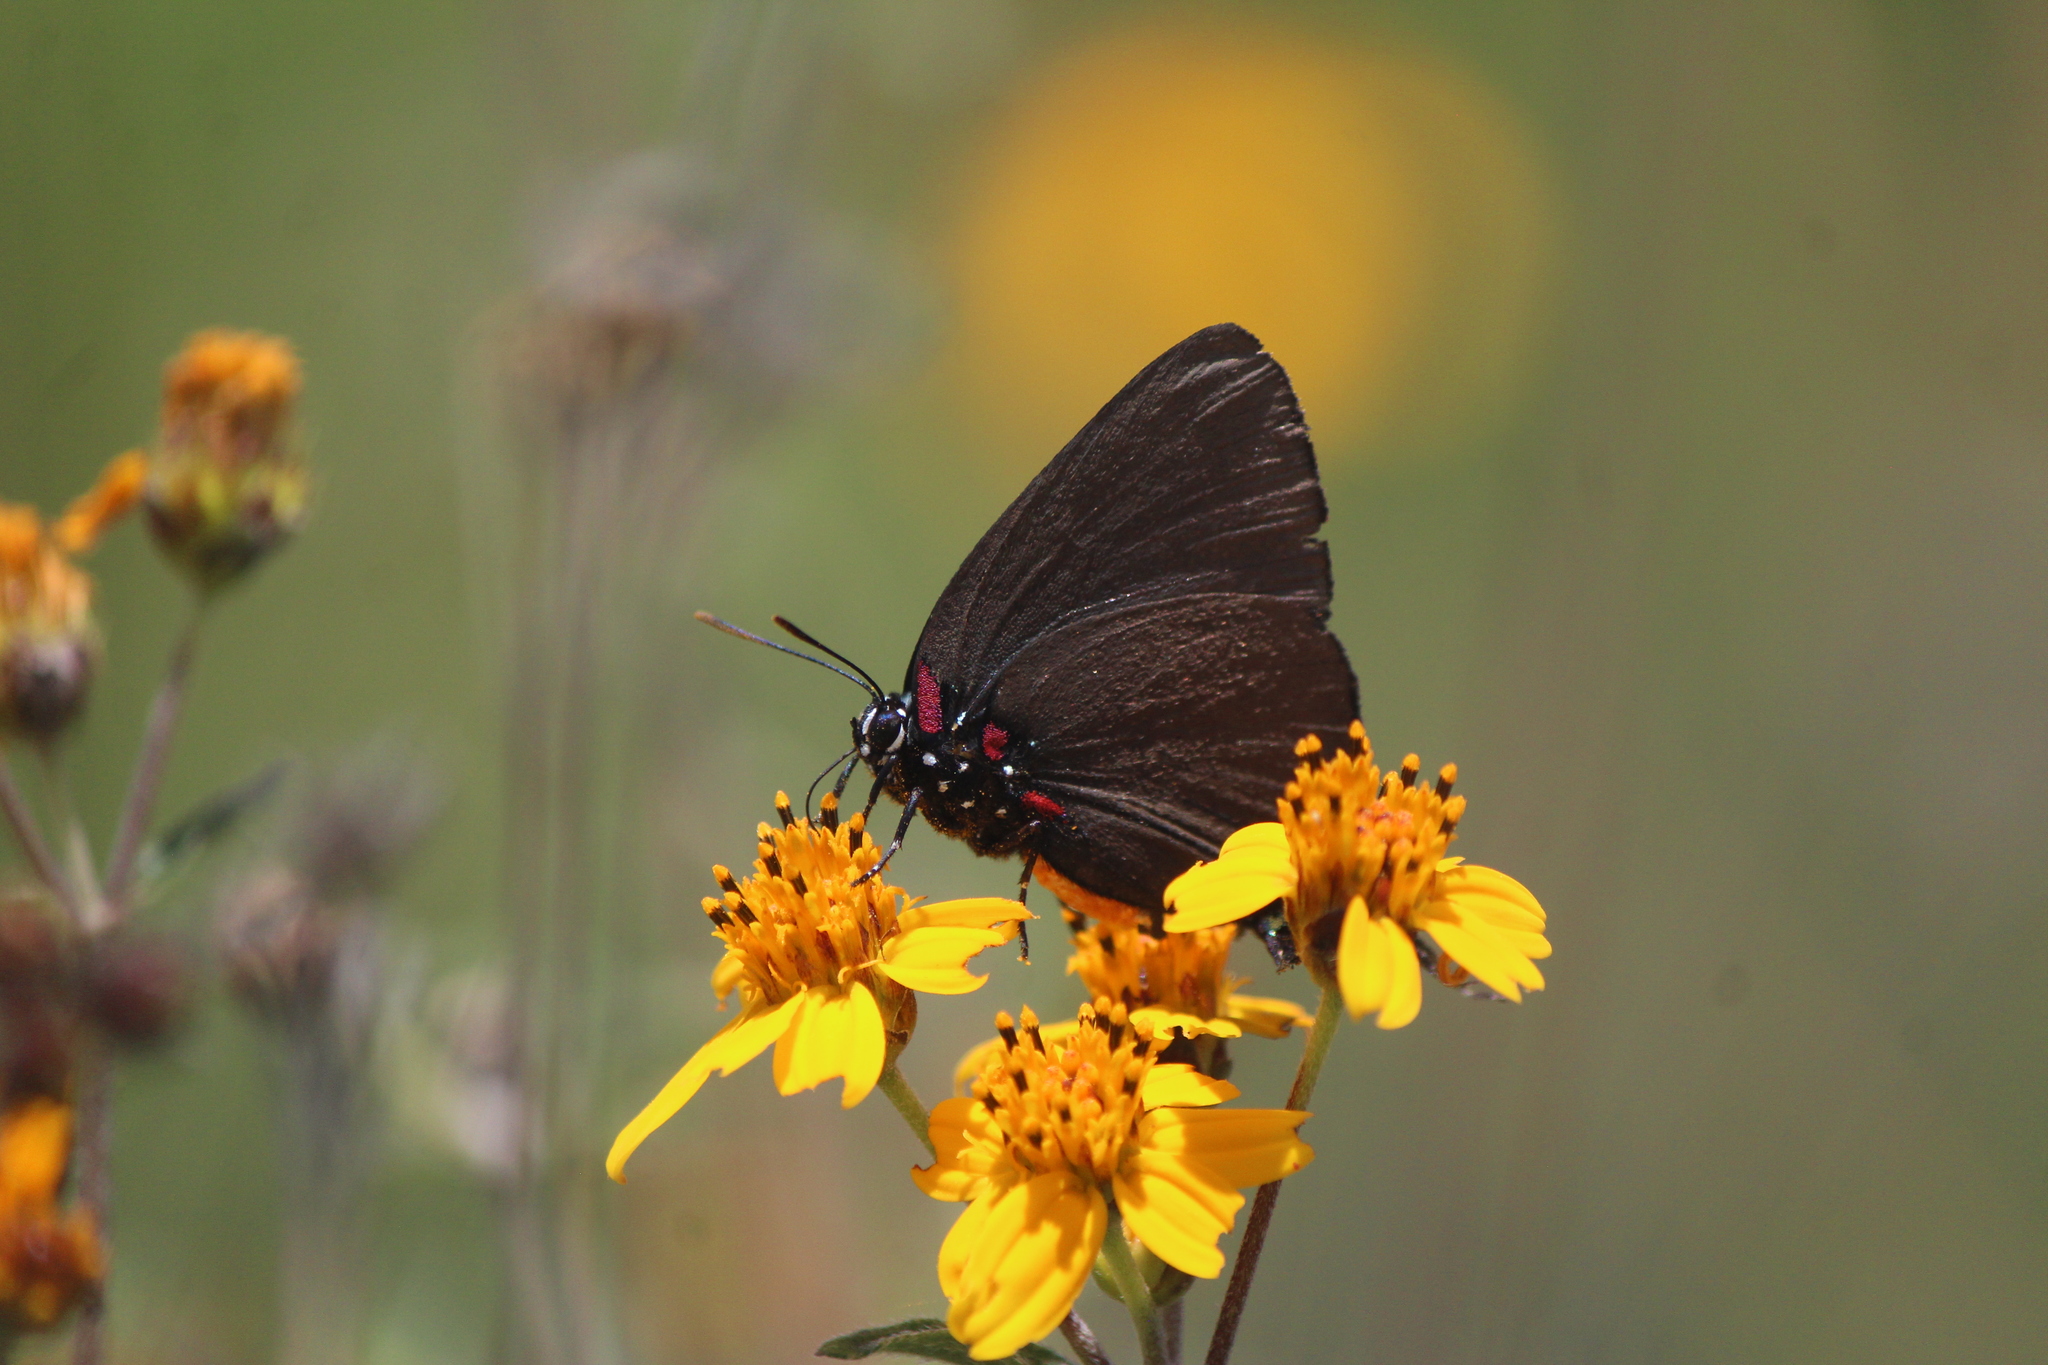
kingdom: Animalia
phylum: Arthropoda
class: Insecta
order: Lepidoptera
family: Lycaenidae
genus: Atlides
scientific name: Atlides halesus
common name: Great purple hairstreak
